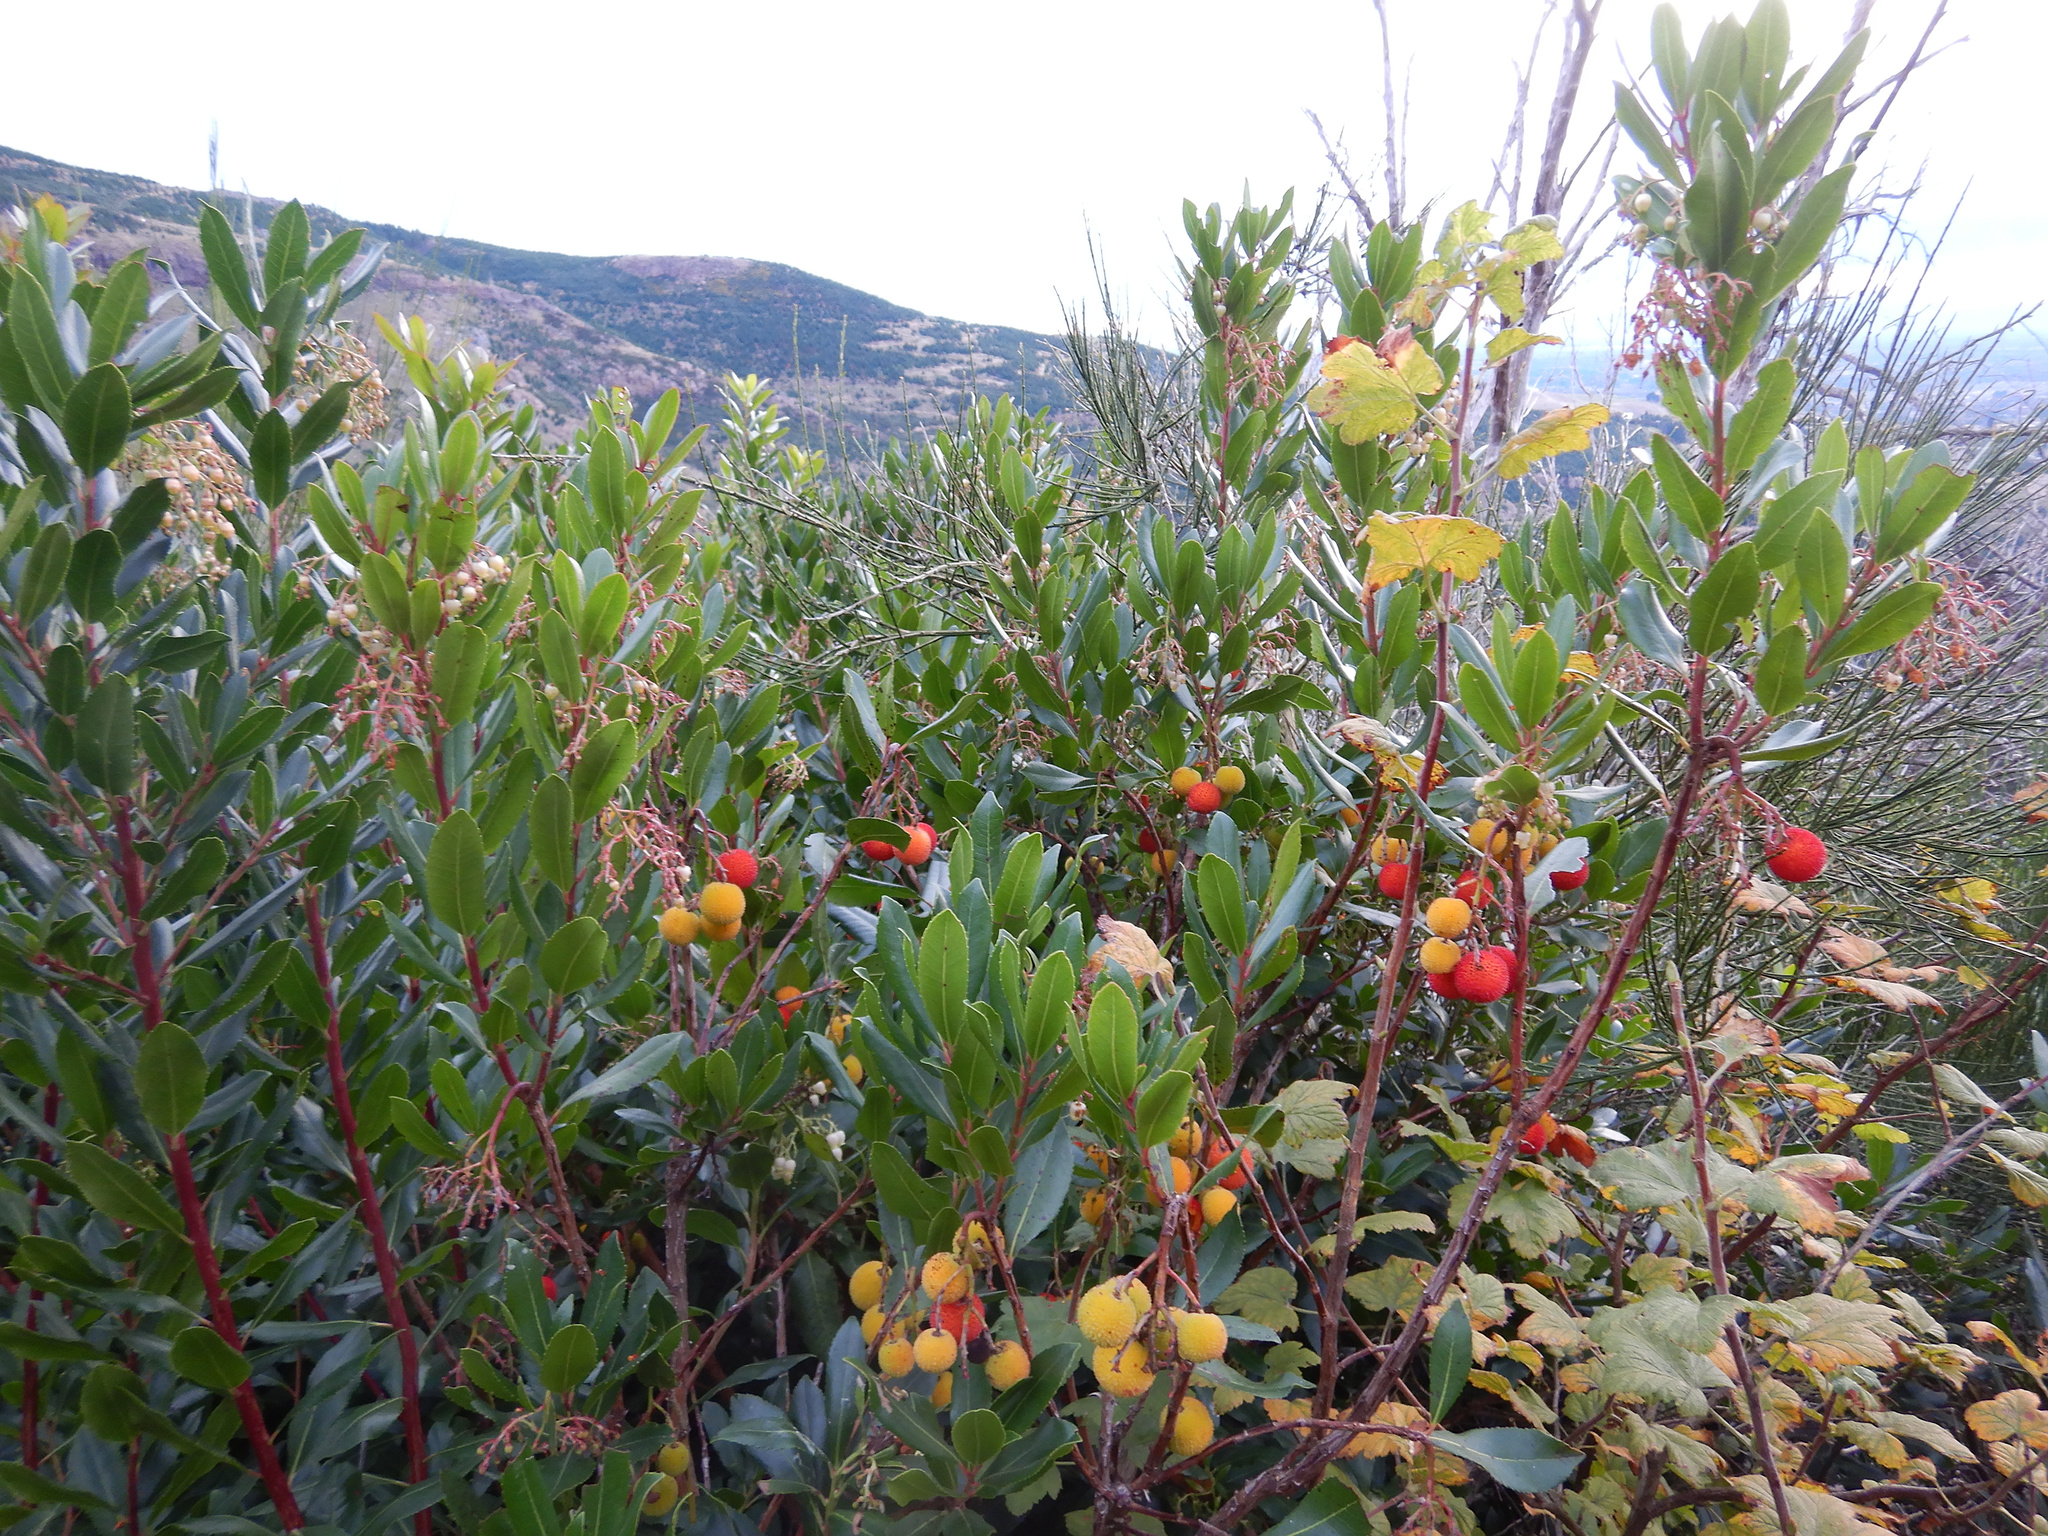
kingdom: Plantae
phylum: Tracheophyta
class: Magnoliopsida
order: Ericales
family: Ericaceae
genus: Arbutus
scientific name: Arbutus unedo
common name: Strawberry-tree
